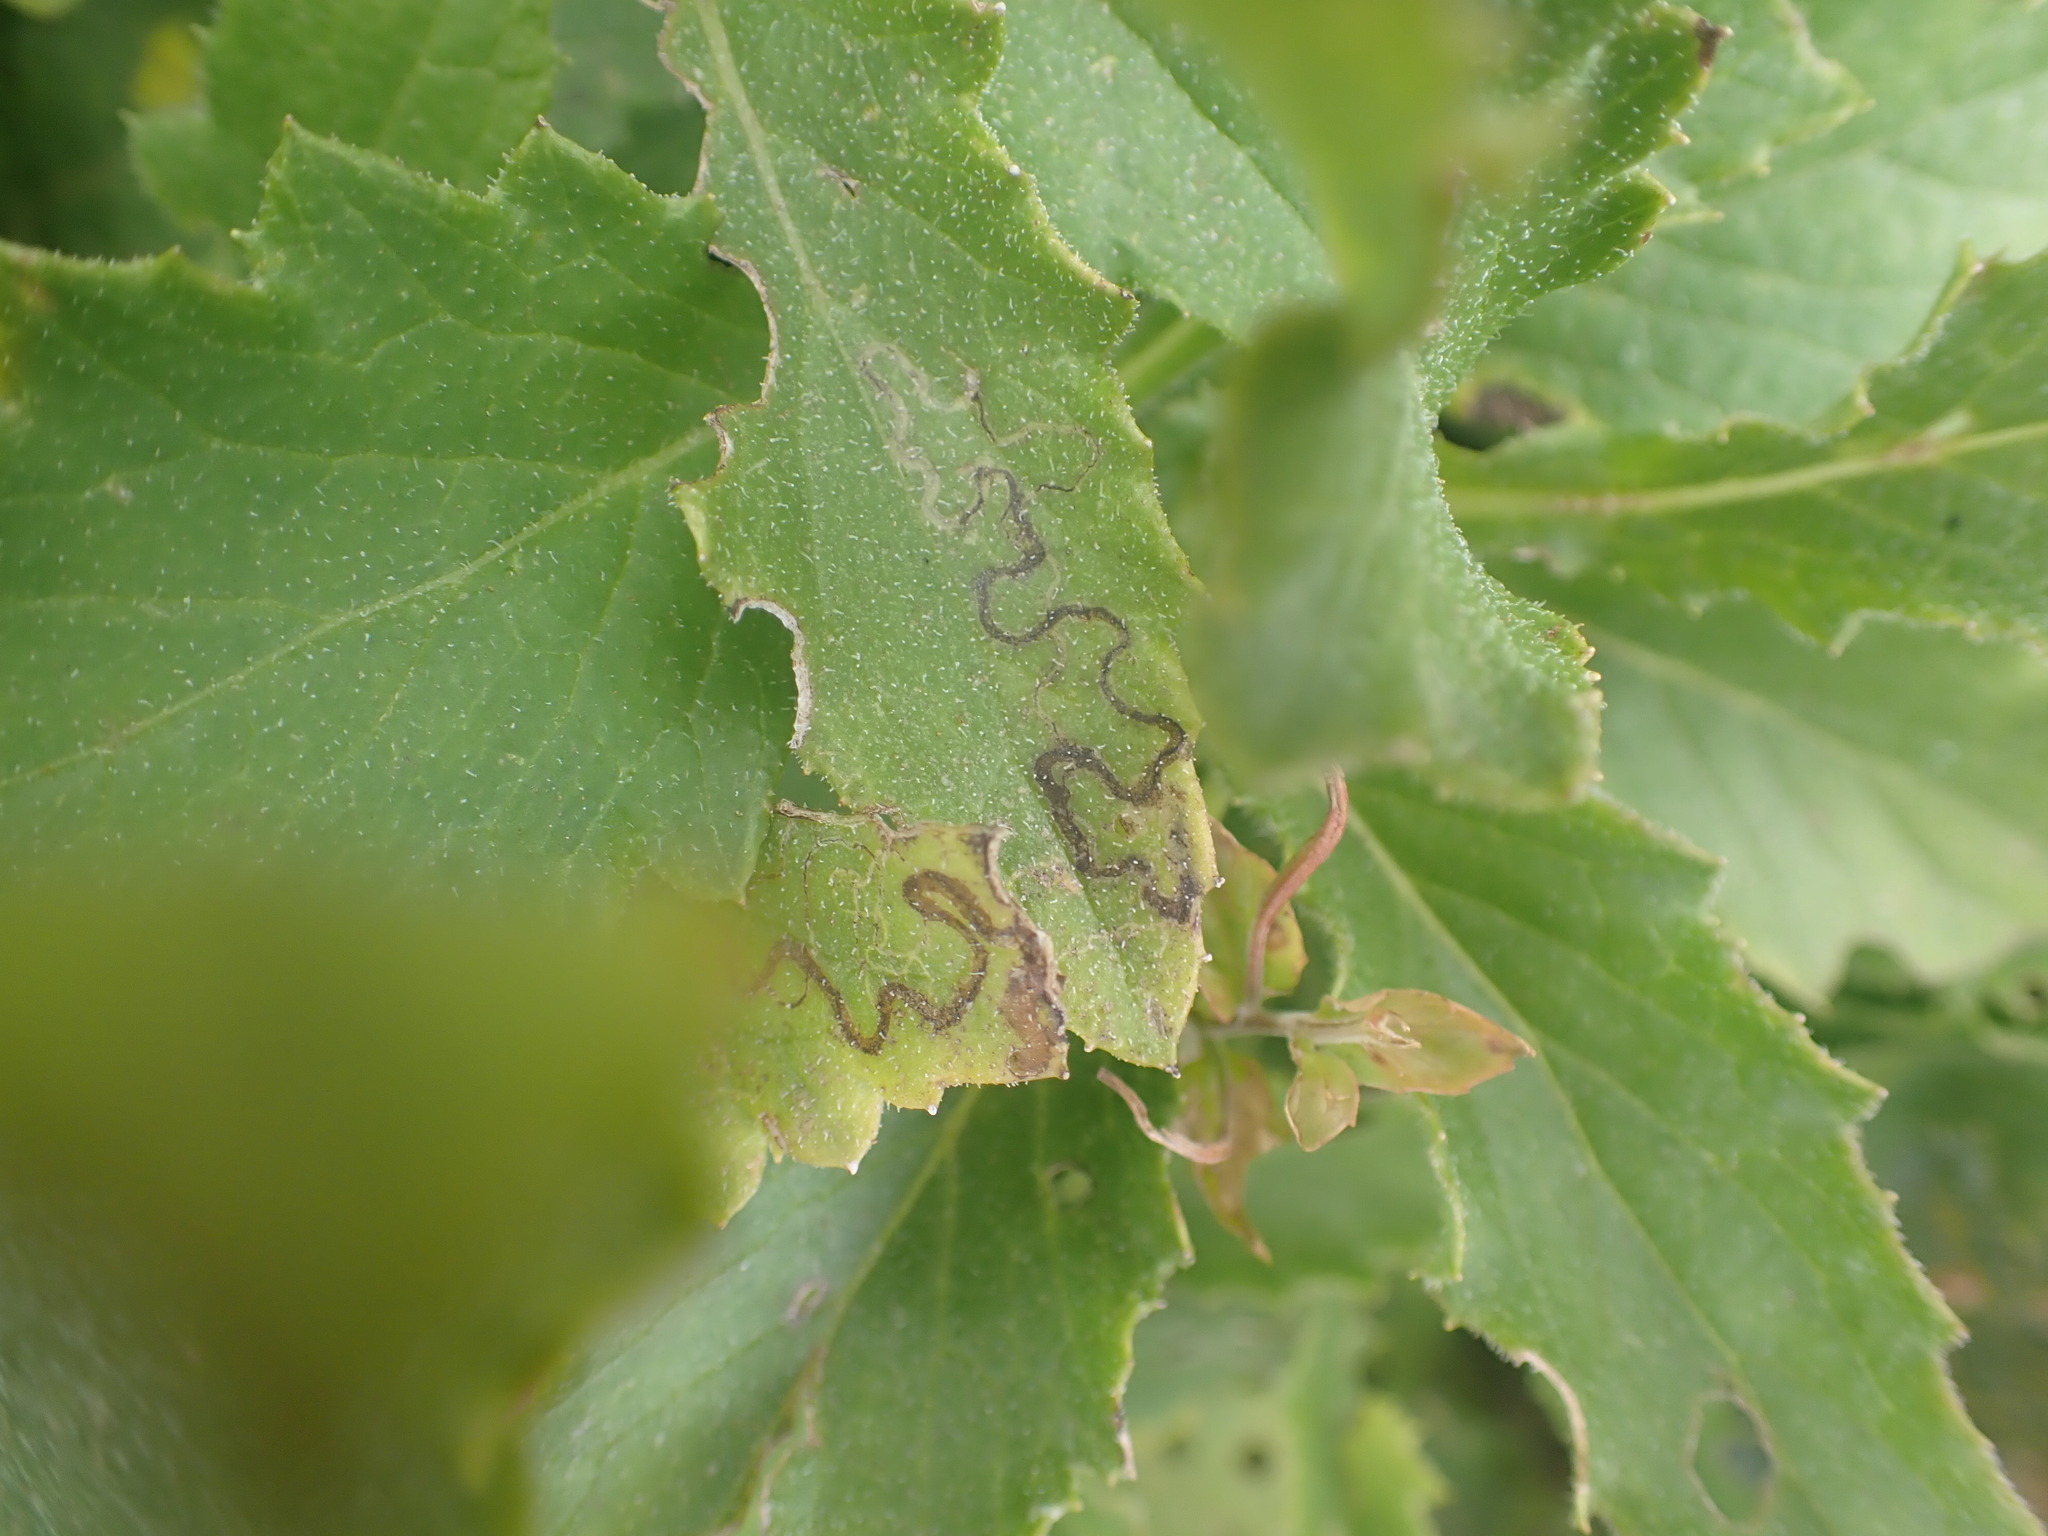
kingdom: Plantae
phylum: Tracheophyta
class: Magnoliopsida
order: Asterales
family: Asteraceae
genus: Senecio
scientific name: Senecio rufiglandulosus
